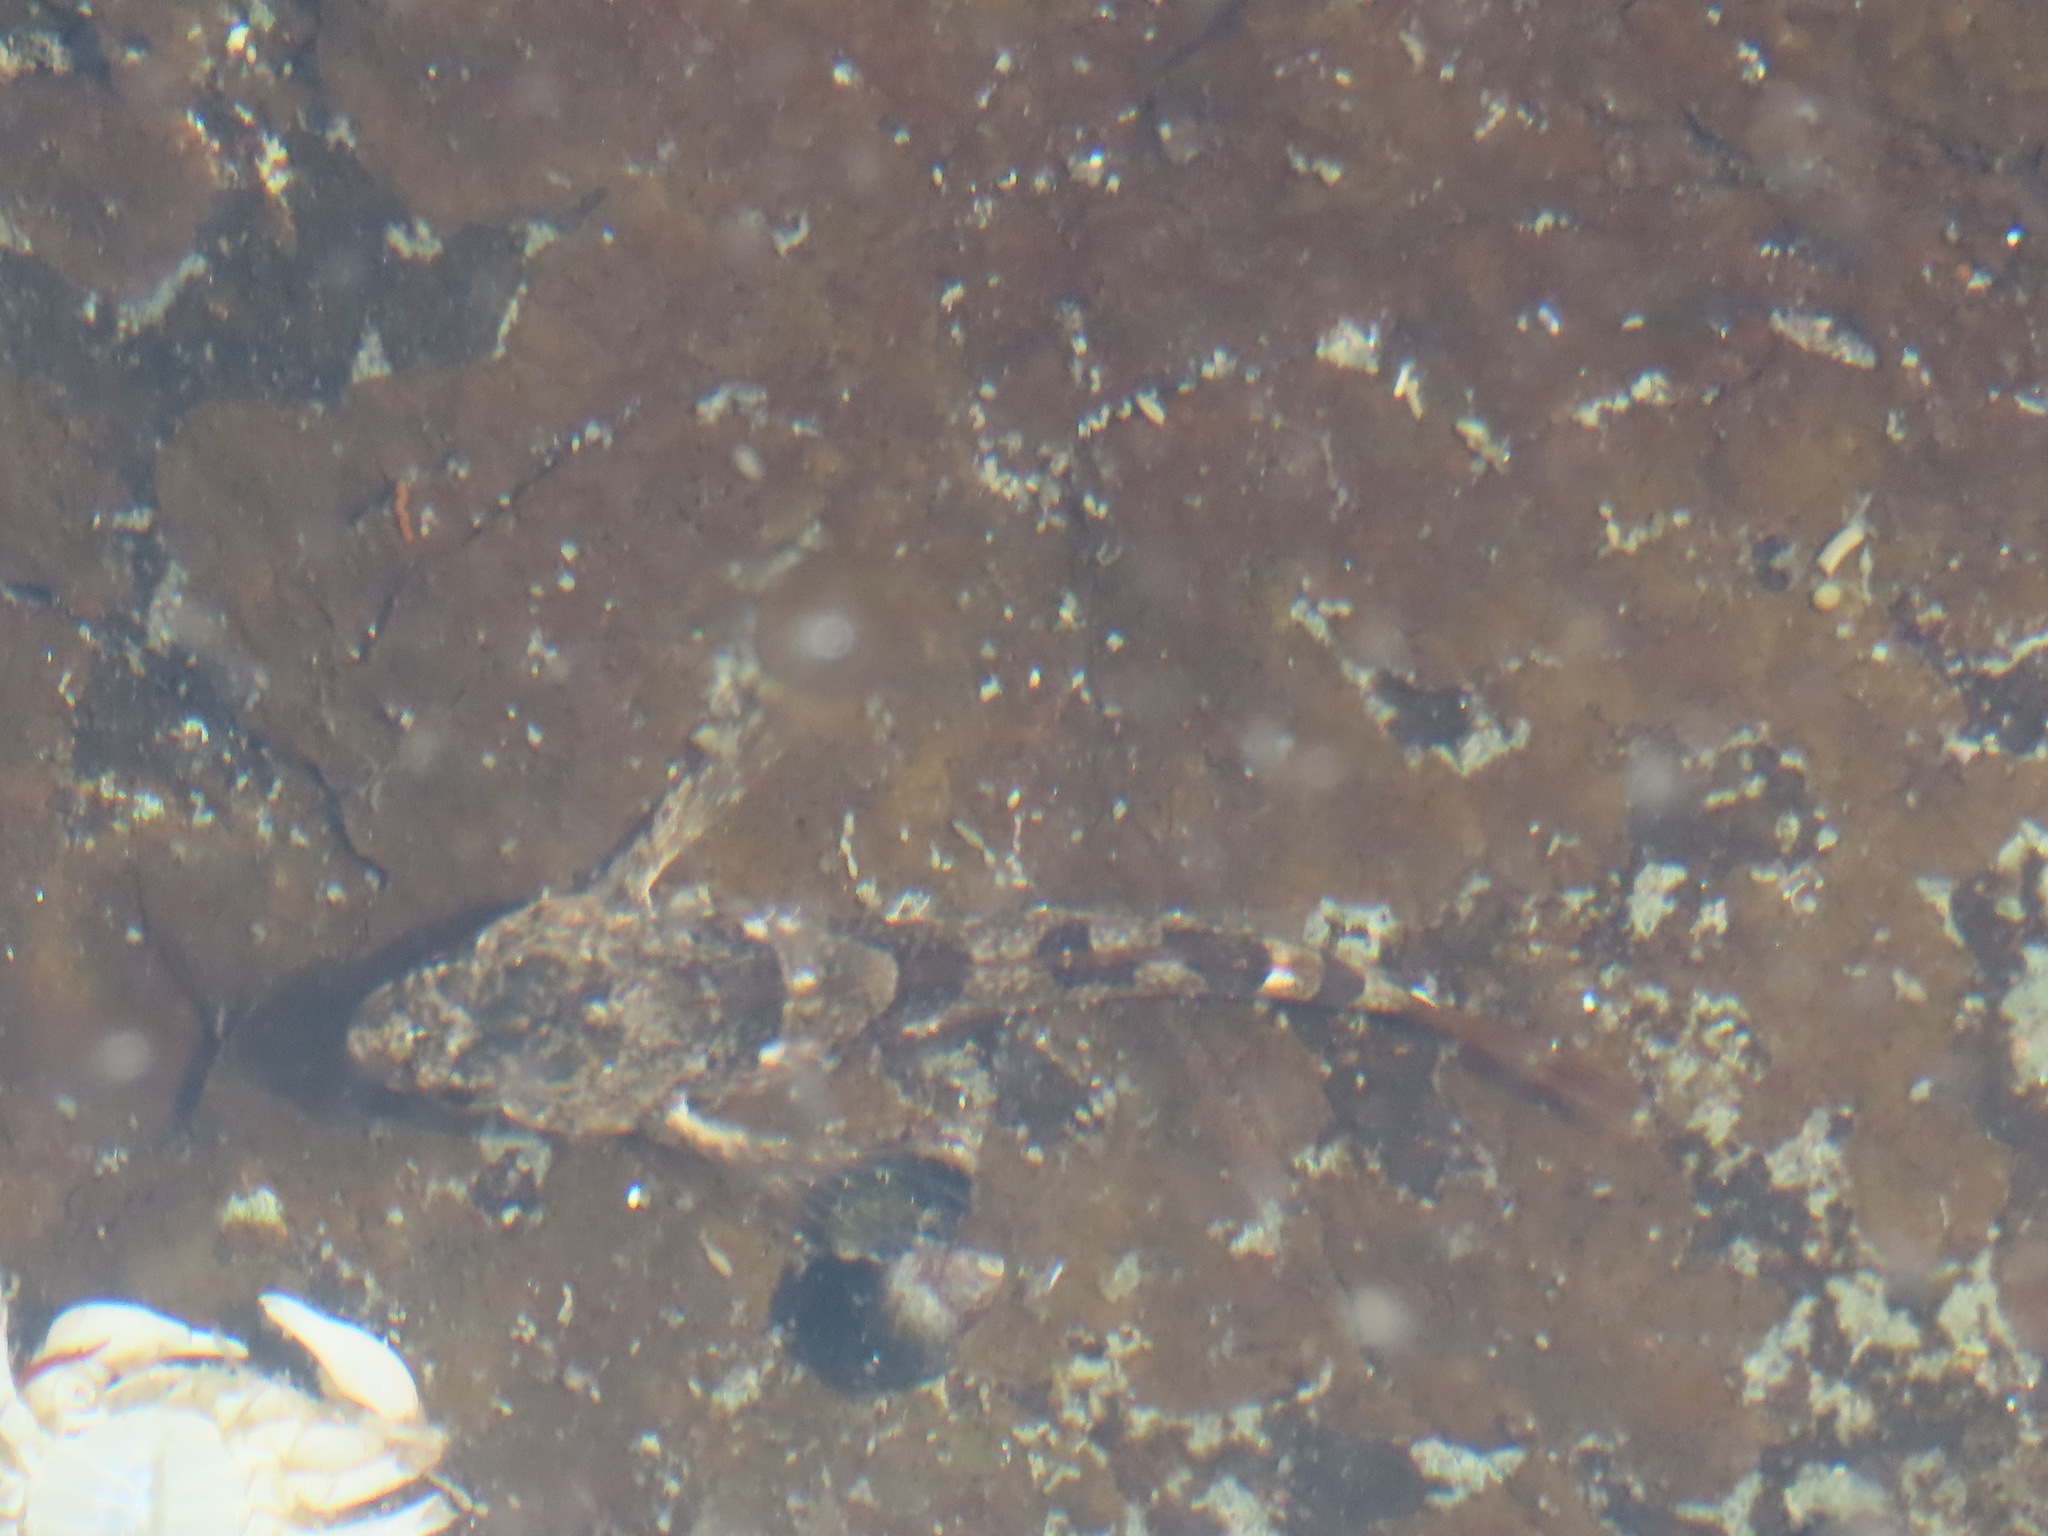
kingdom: Animalia
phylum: Chordata
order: Scorpaeniformes
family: Cottidae
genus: Oligocottus
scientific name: Oligocottus maculosus
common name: Tidepool sculpin
